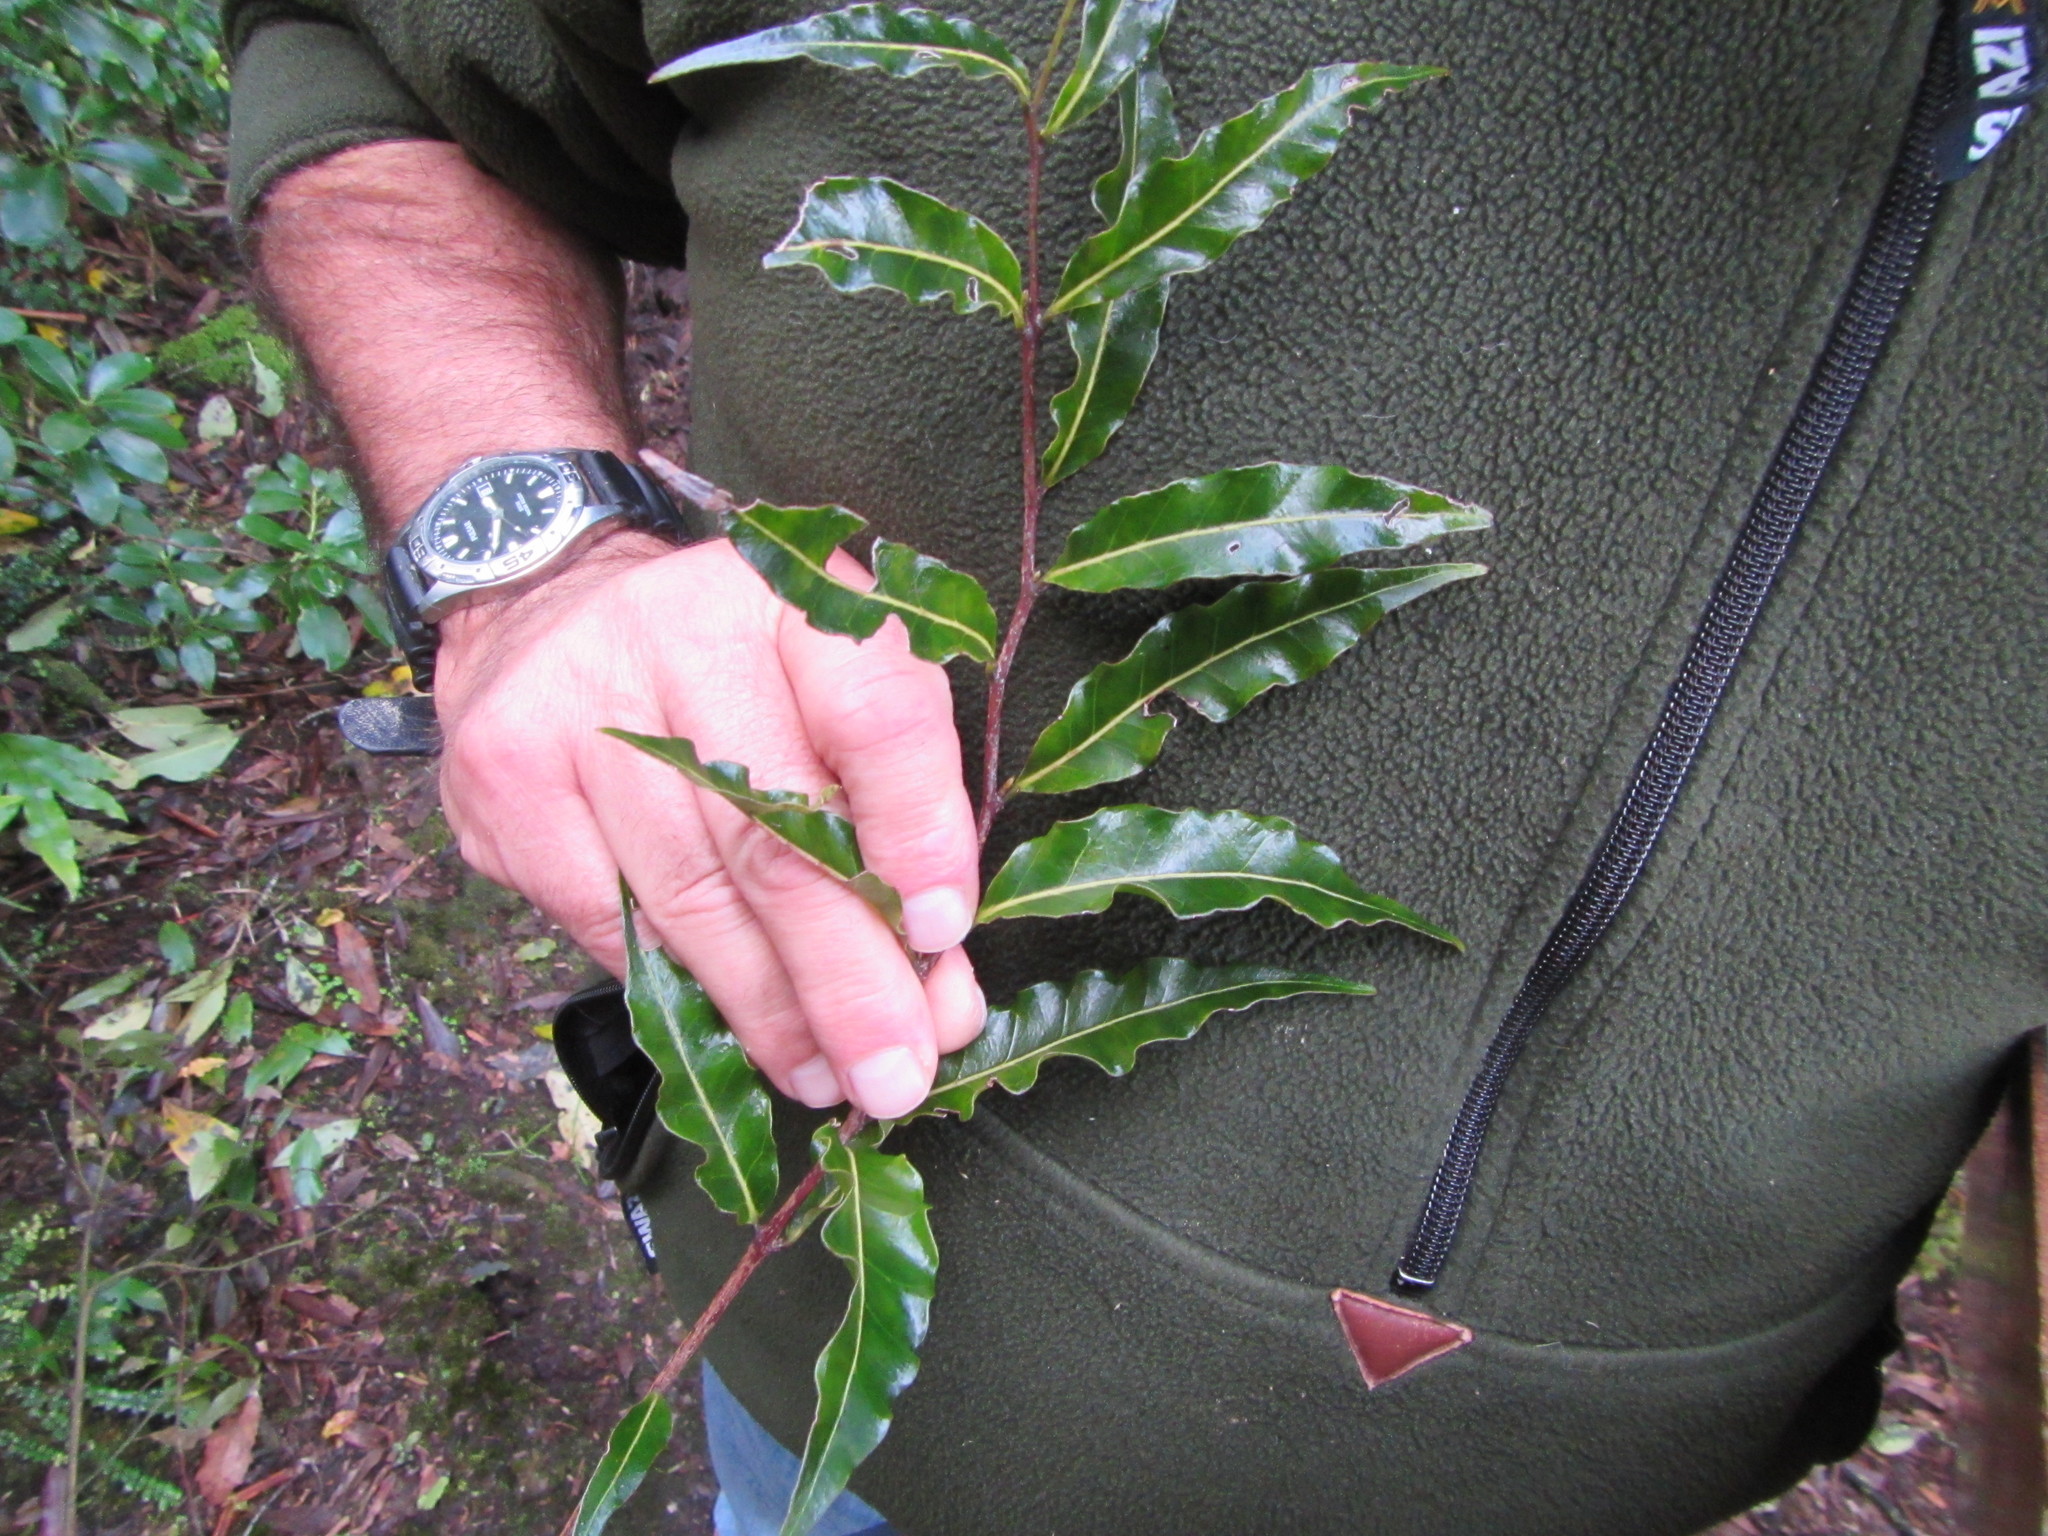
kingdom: Plantae
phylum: Tracheophyta
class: Magnoliopsida
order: Santalales
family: Nanodeaceae
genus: Mida
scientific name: Mida salicifolia
